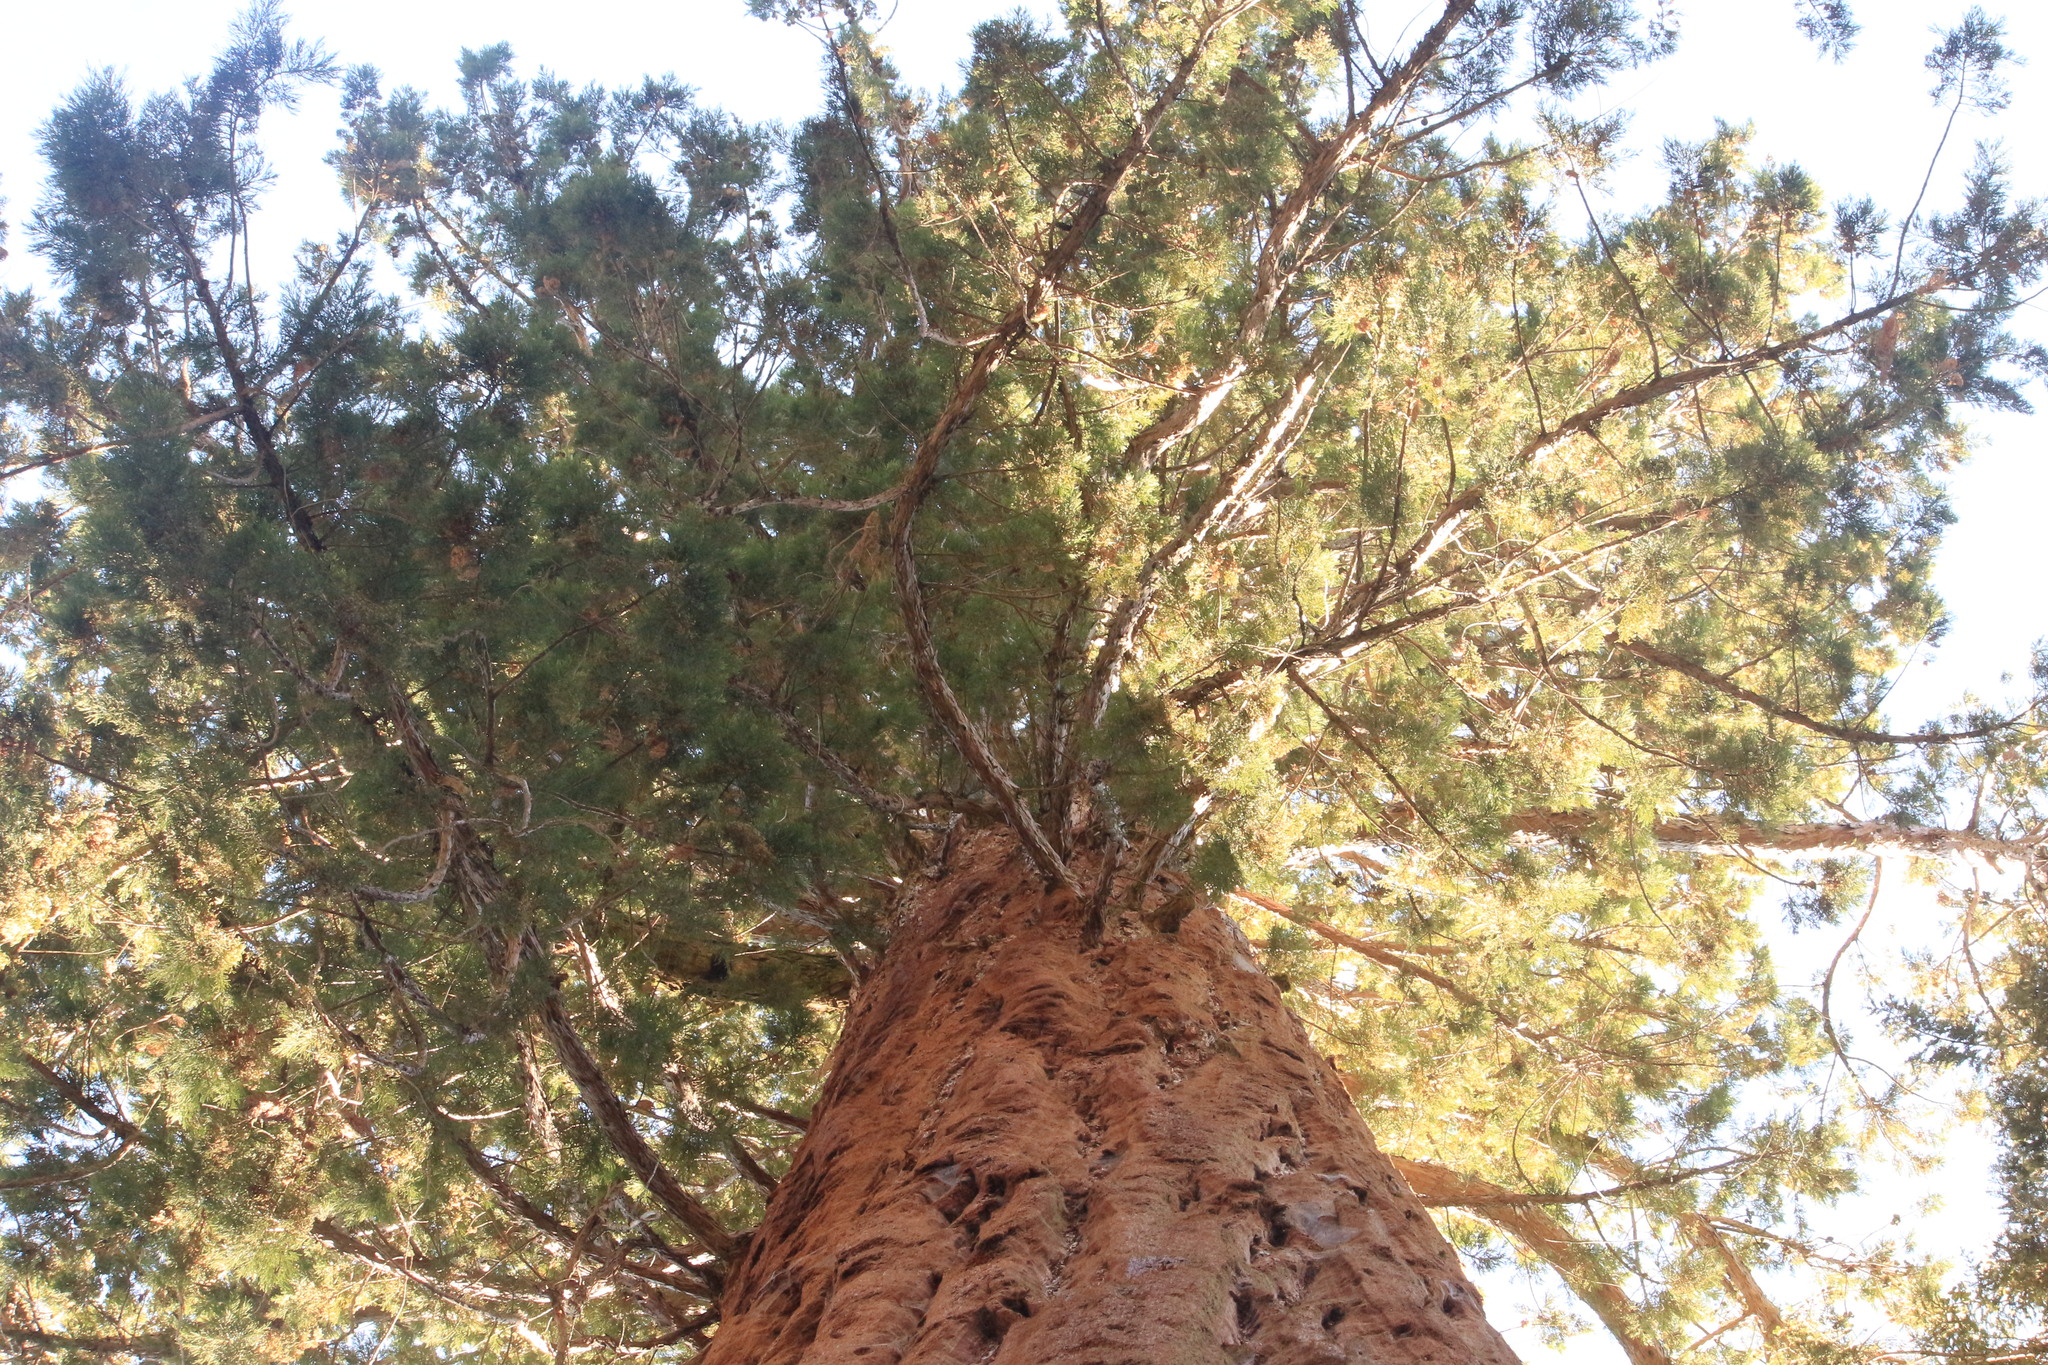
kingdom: Plantae
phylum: Tracheophyta
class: Pinopsida
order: Pinales
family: Cupressaceae
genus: Sequoiadendron
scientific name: Sequoiadendron giganteum
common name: Wellingtonia
